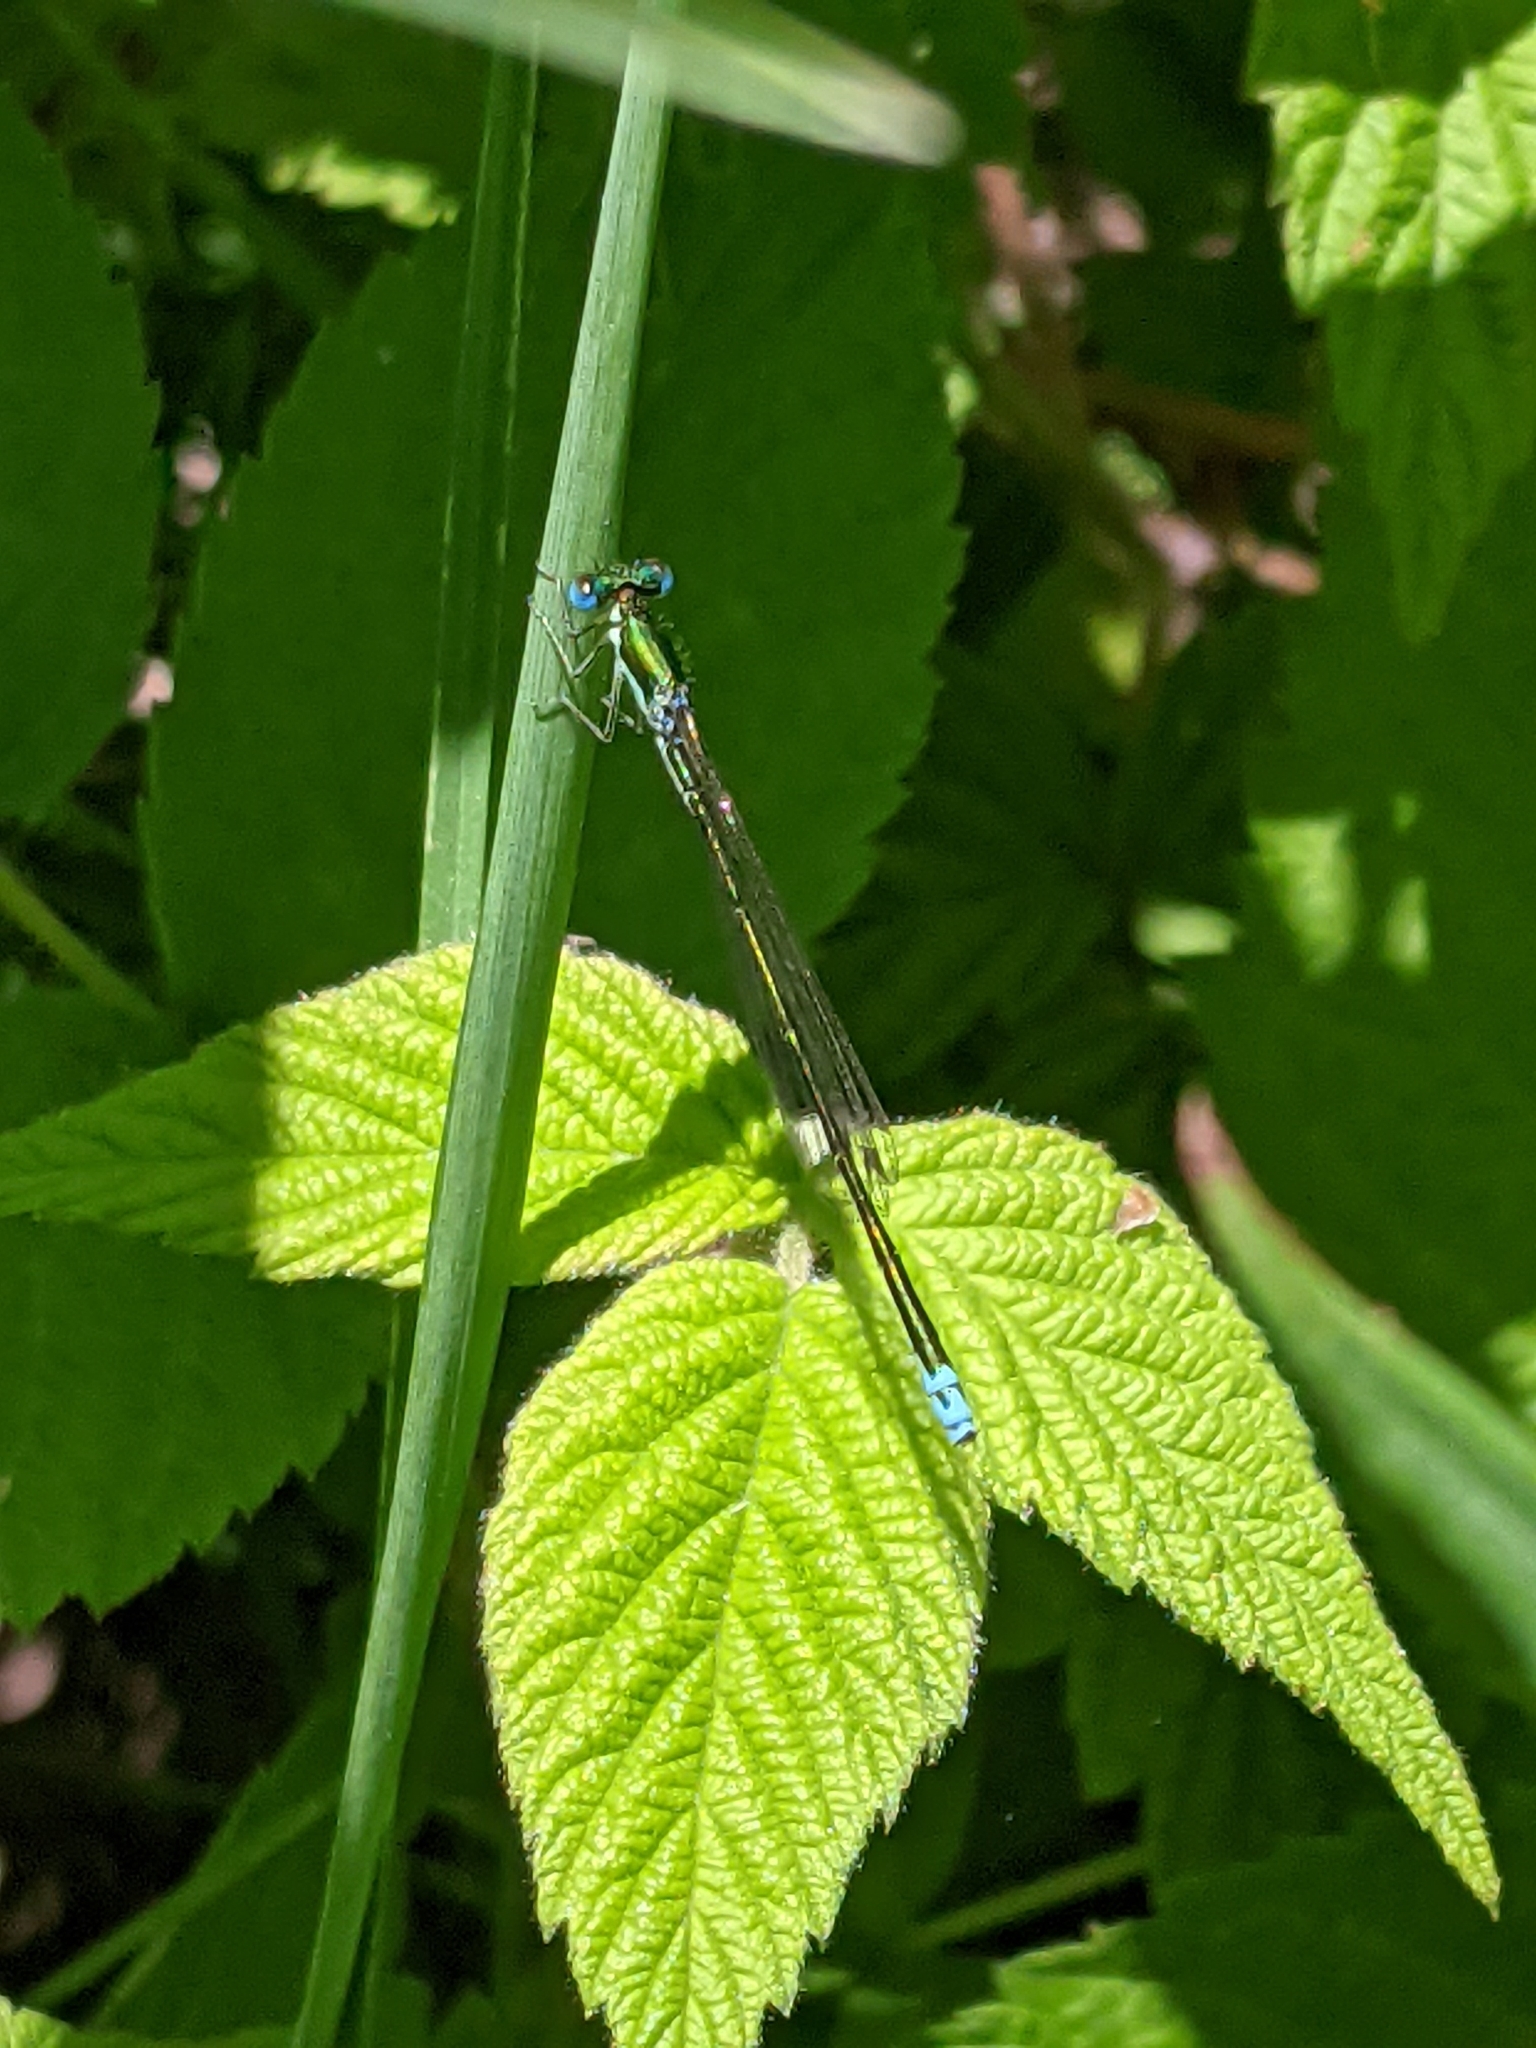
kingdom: Animalia
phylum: Arthropoda
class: Insecta
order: Odonata
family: Coenagrionidae
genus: Nehalennia
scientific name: Nehalennia irene
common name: Sedge sprite
